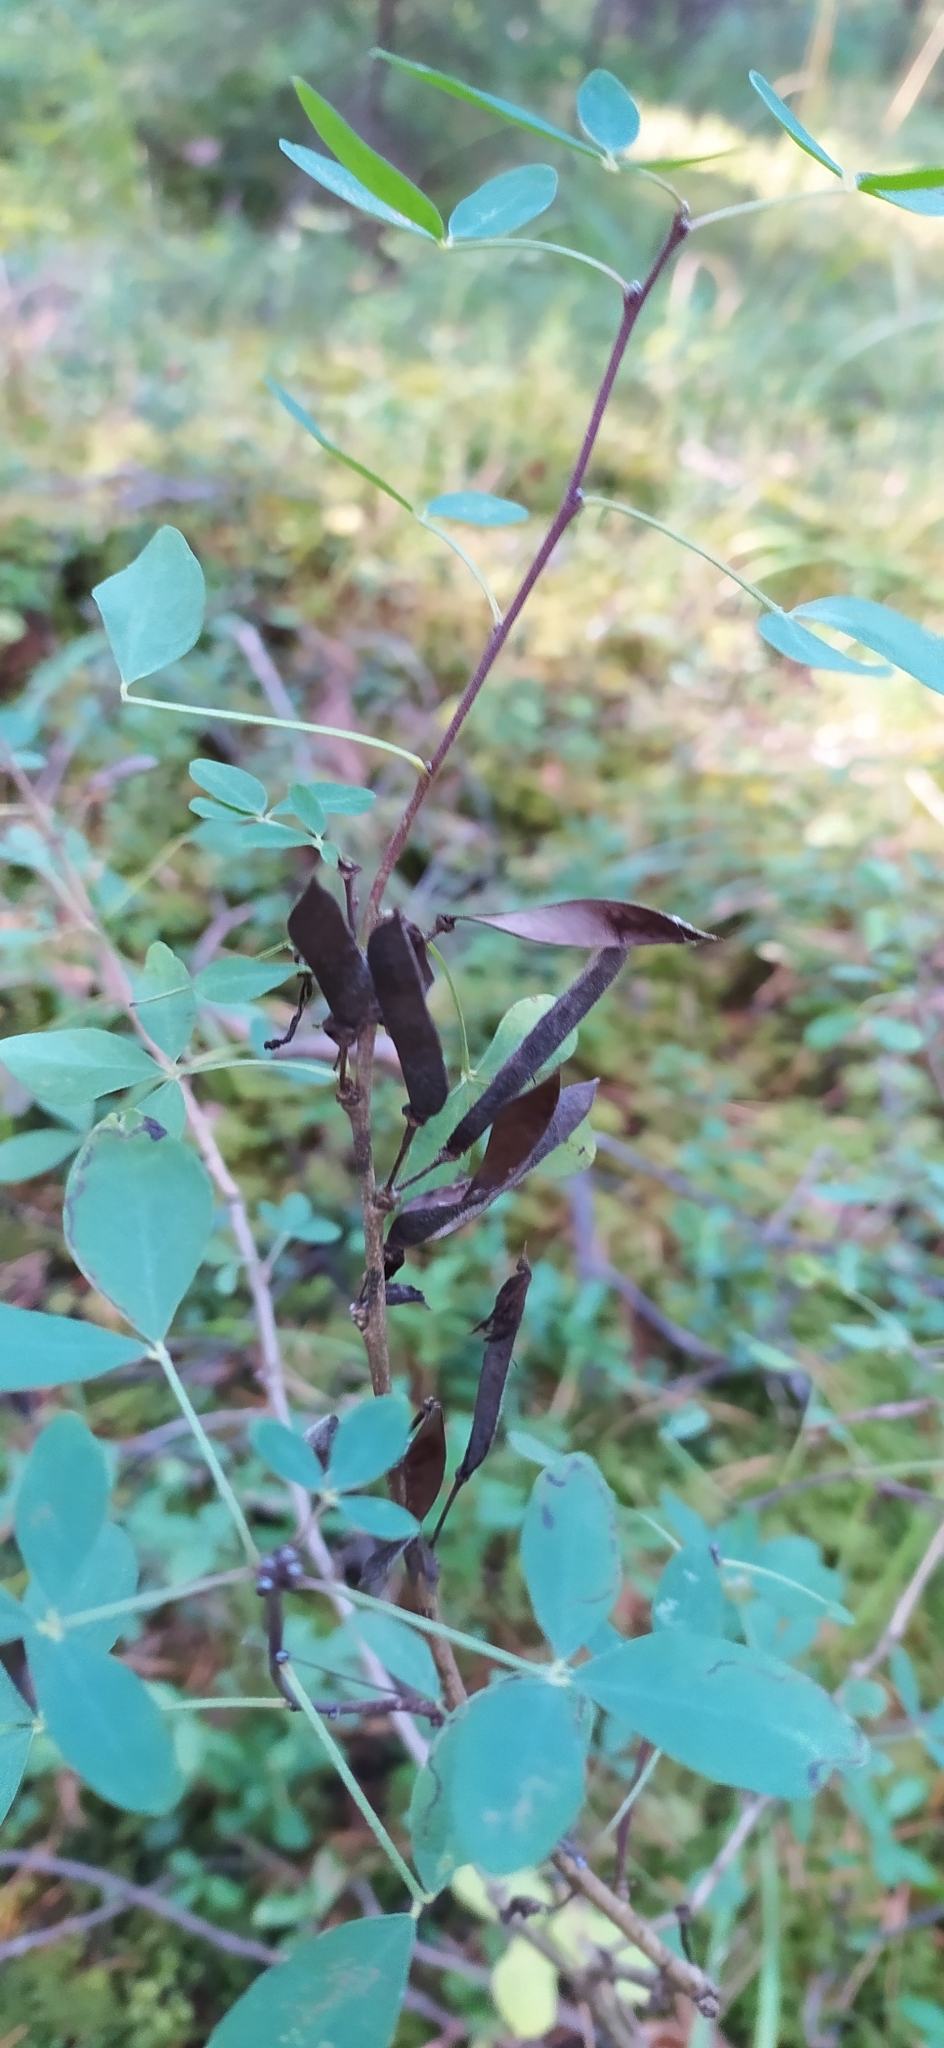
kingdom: Plantae
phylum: Tracheophyta
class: Magnoliopsida
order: Fabales
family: Fabaceae
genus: Chamaecytisus
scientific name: Chamaecytisus ruthenicus
